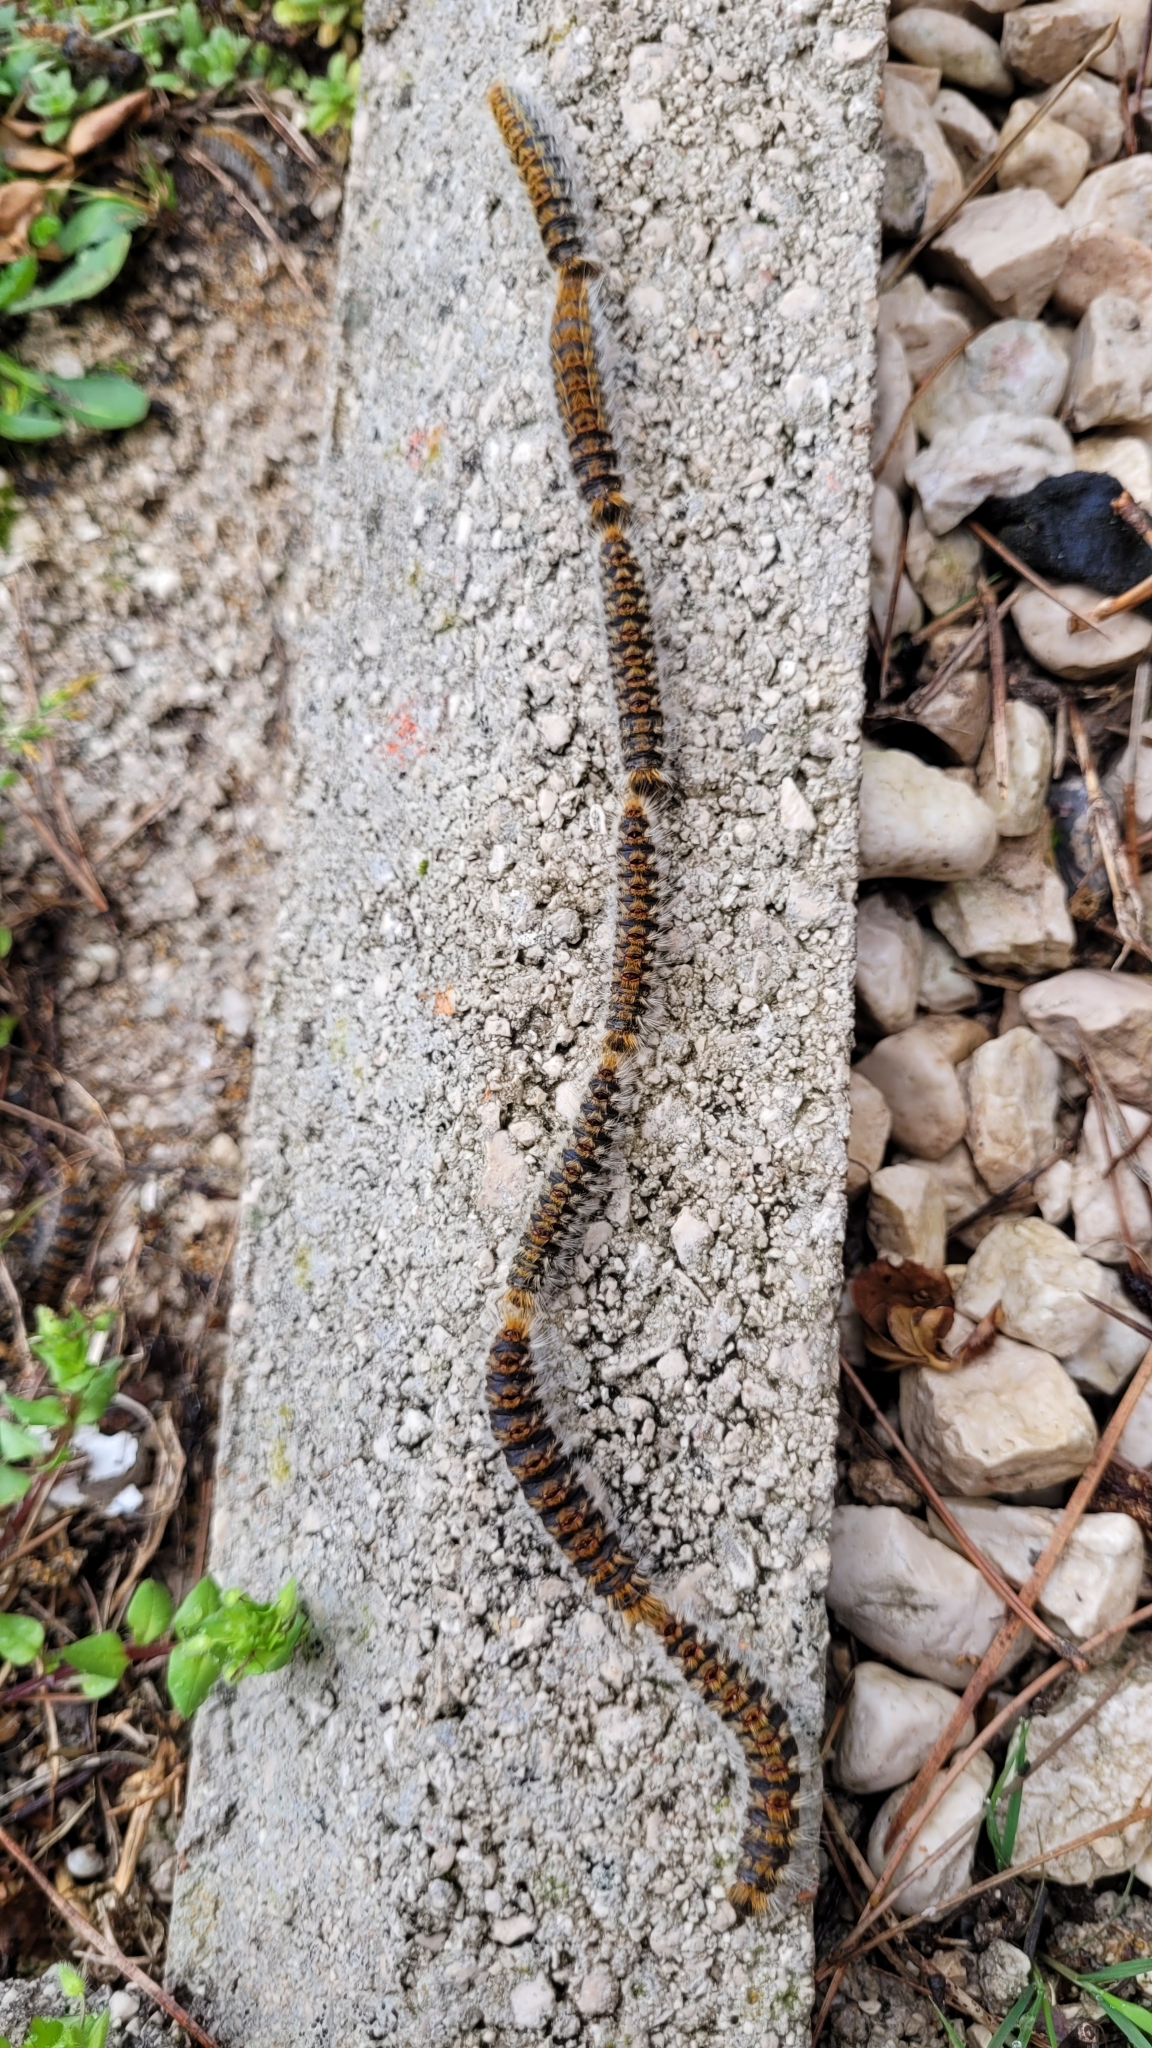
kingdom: Animalia
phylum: Arthropoda
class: Insecta
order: Lepidoptera
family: Notodontidae
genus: Thaumetopoea
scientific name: Thaumetopoea pityocampa
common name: Pine processionary
